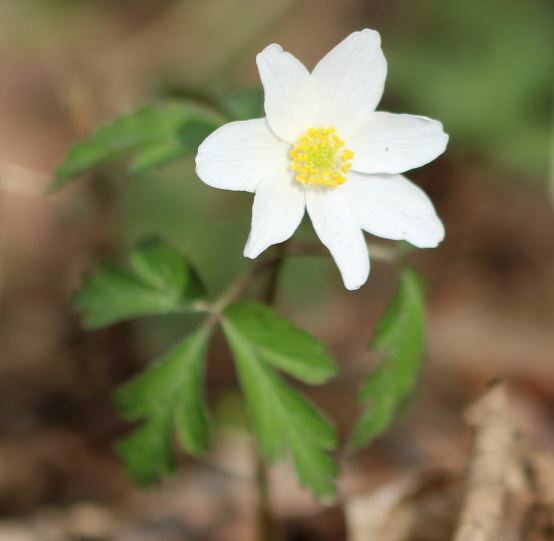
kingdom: Plantae
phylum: Tracheophyta
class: Magnoliopsida
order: Ranunculales
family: Ranunculaceae
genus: Anemone
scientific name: Anemone nemorosa
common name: Wood anemone
